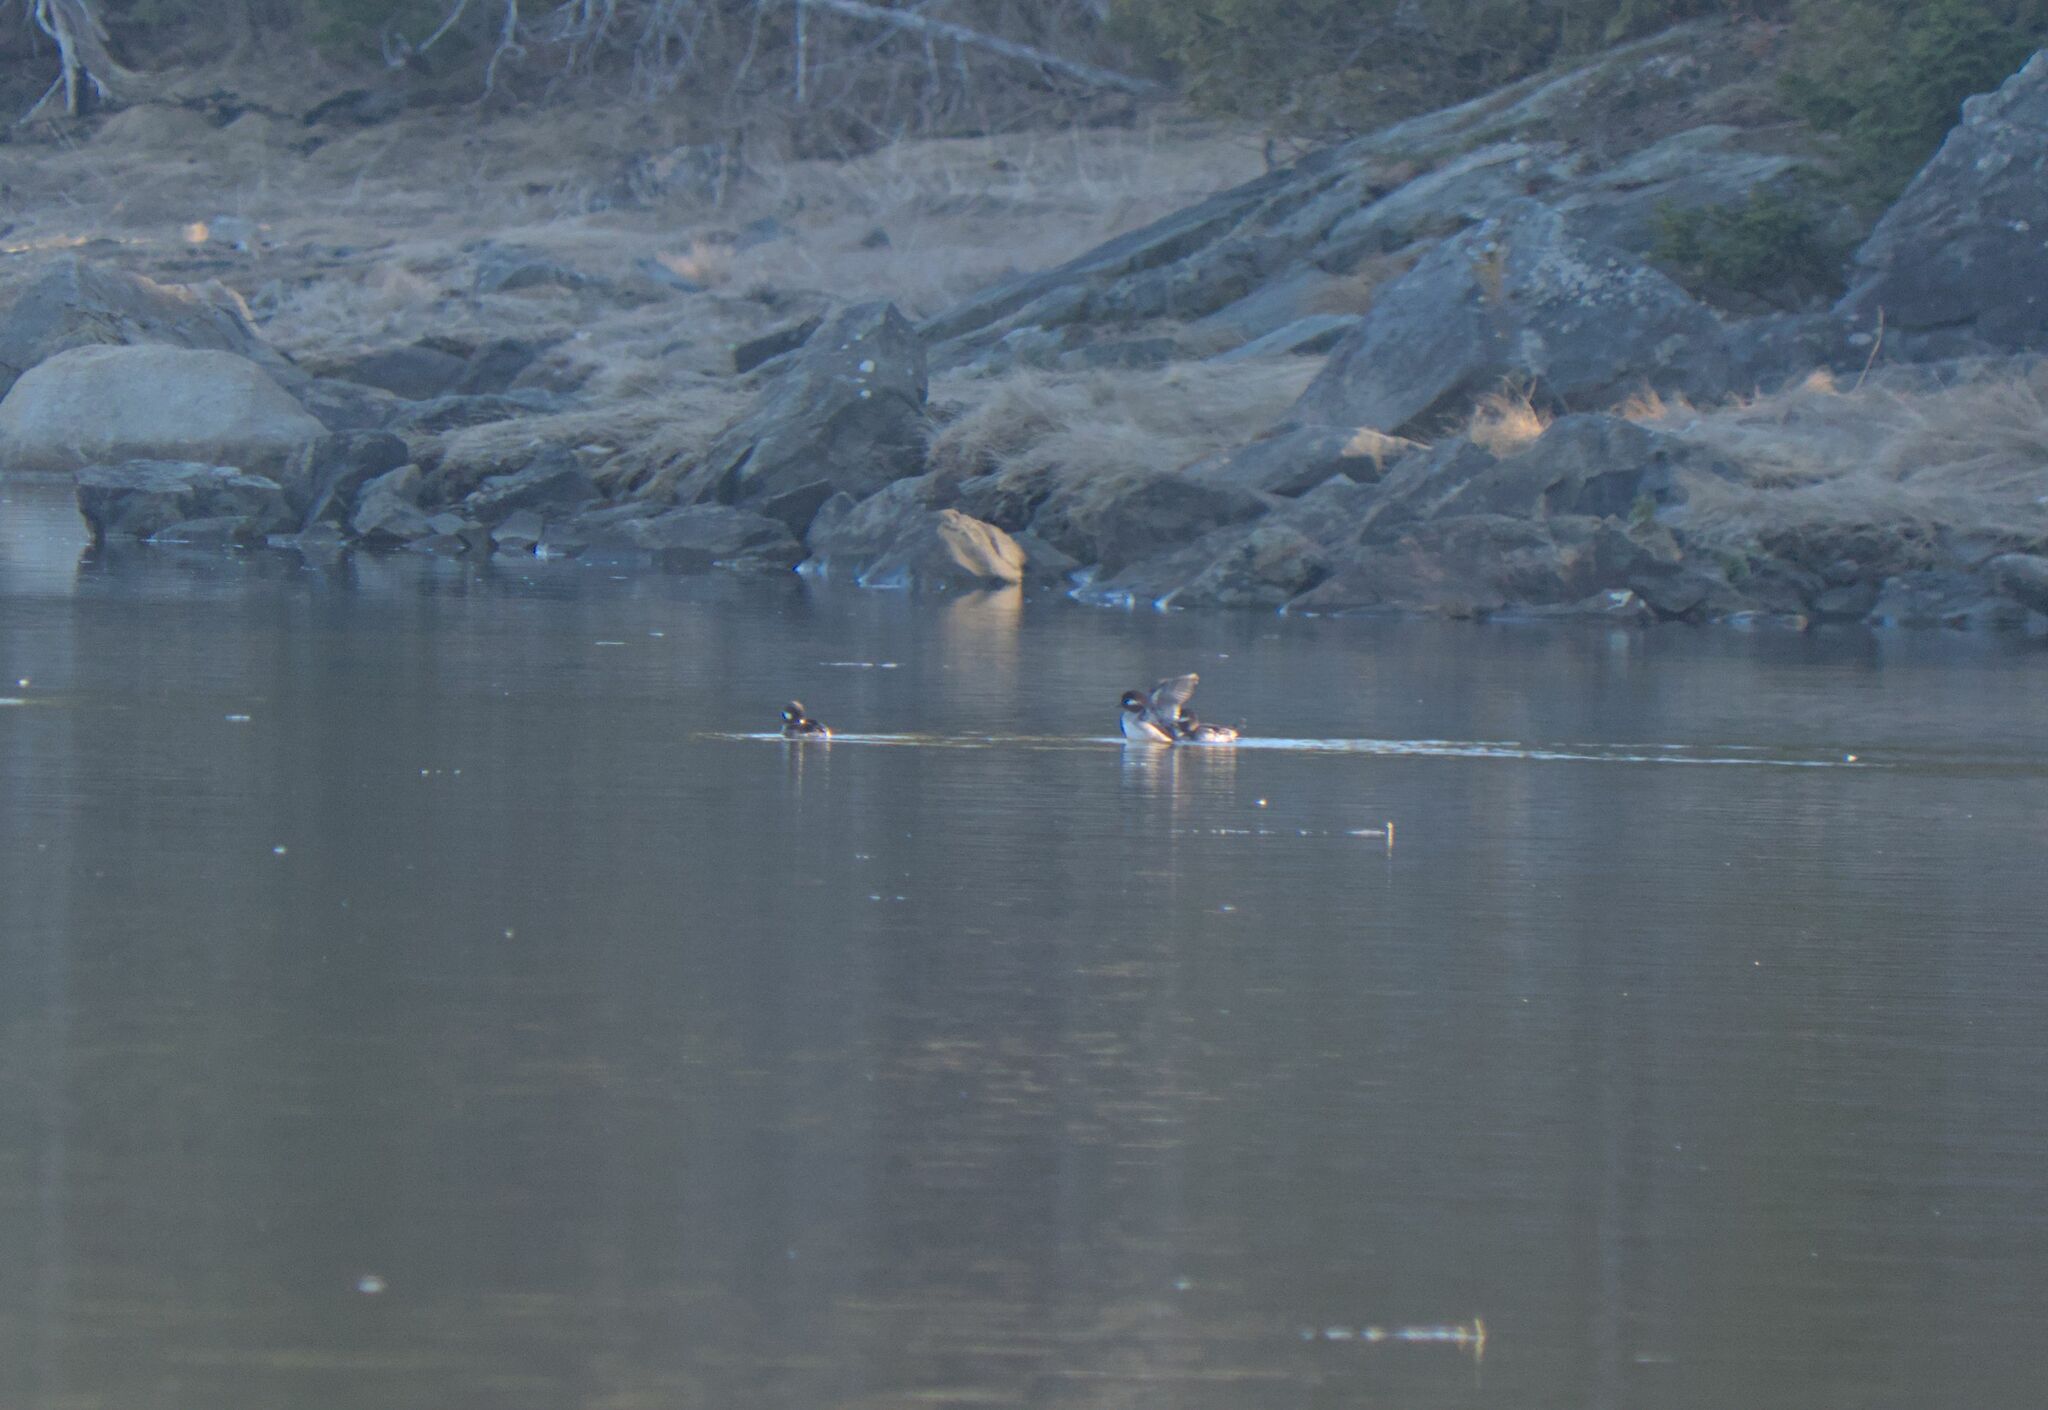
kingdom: Animalia
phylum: Chordata
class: Aves
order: Anseriformes
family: Anatidae
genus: Bucephala
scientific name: Bucephala albeola
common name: Bufflehead
